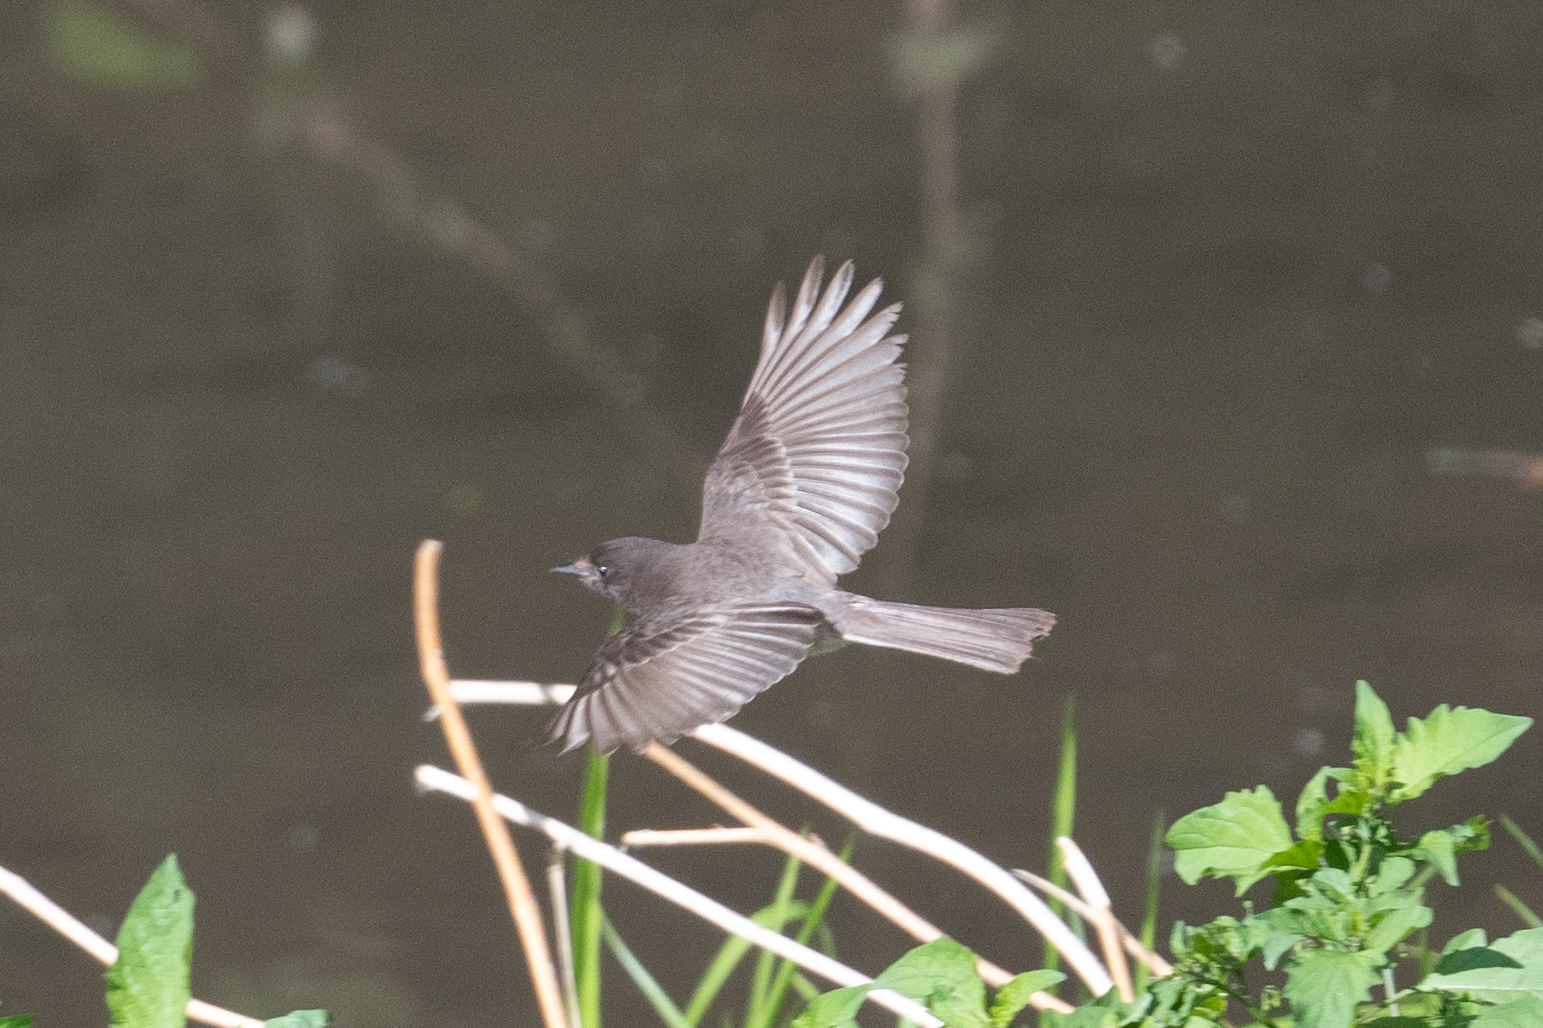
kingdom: Animalia
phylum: Chordata
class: Aves
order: Passeriformes
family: Tyrannidae
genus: Sayornis
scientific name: Sayornis nigricans
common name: Black phoebe
